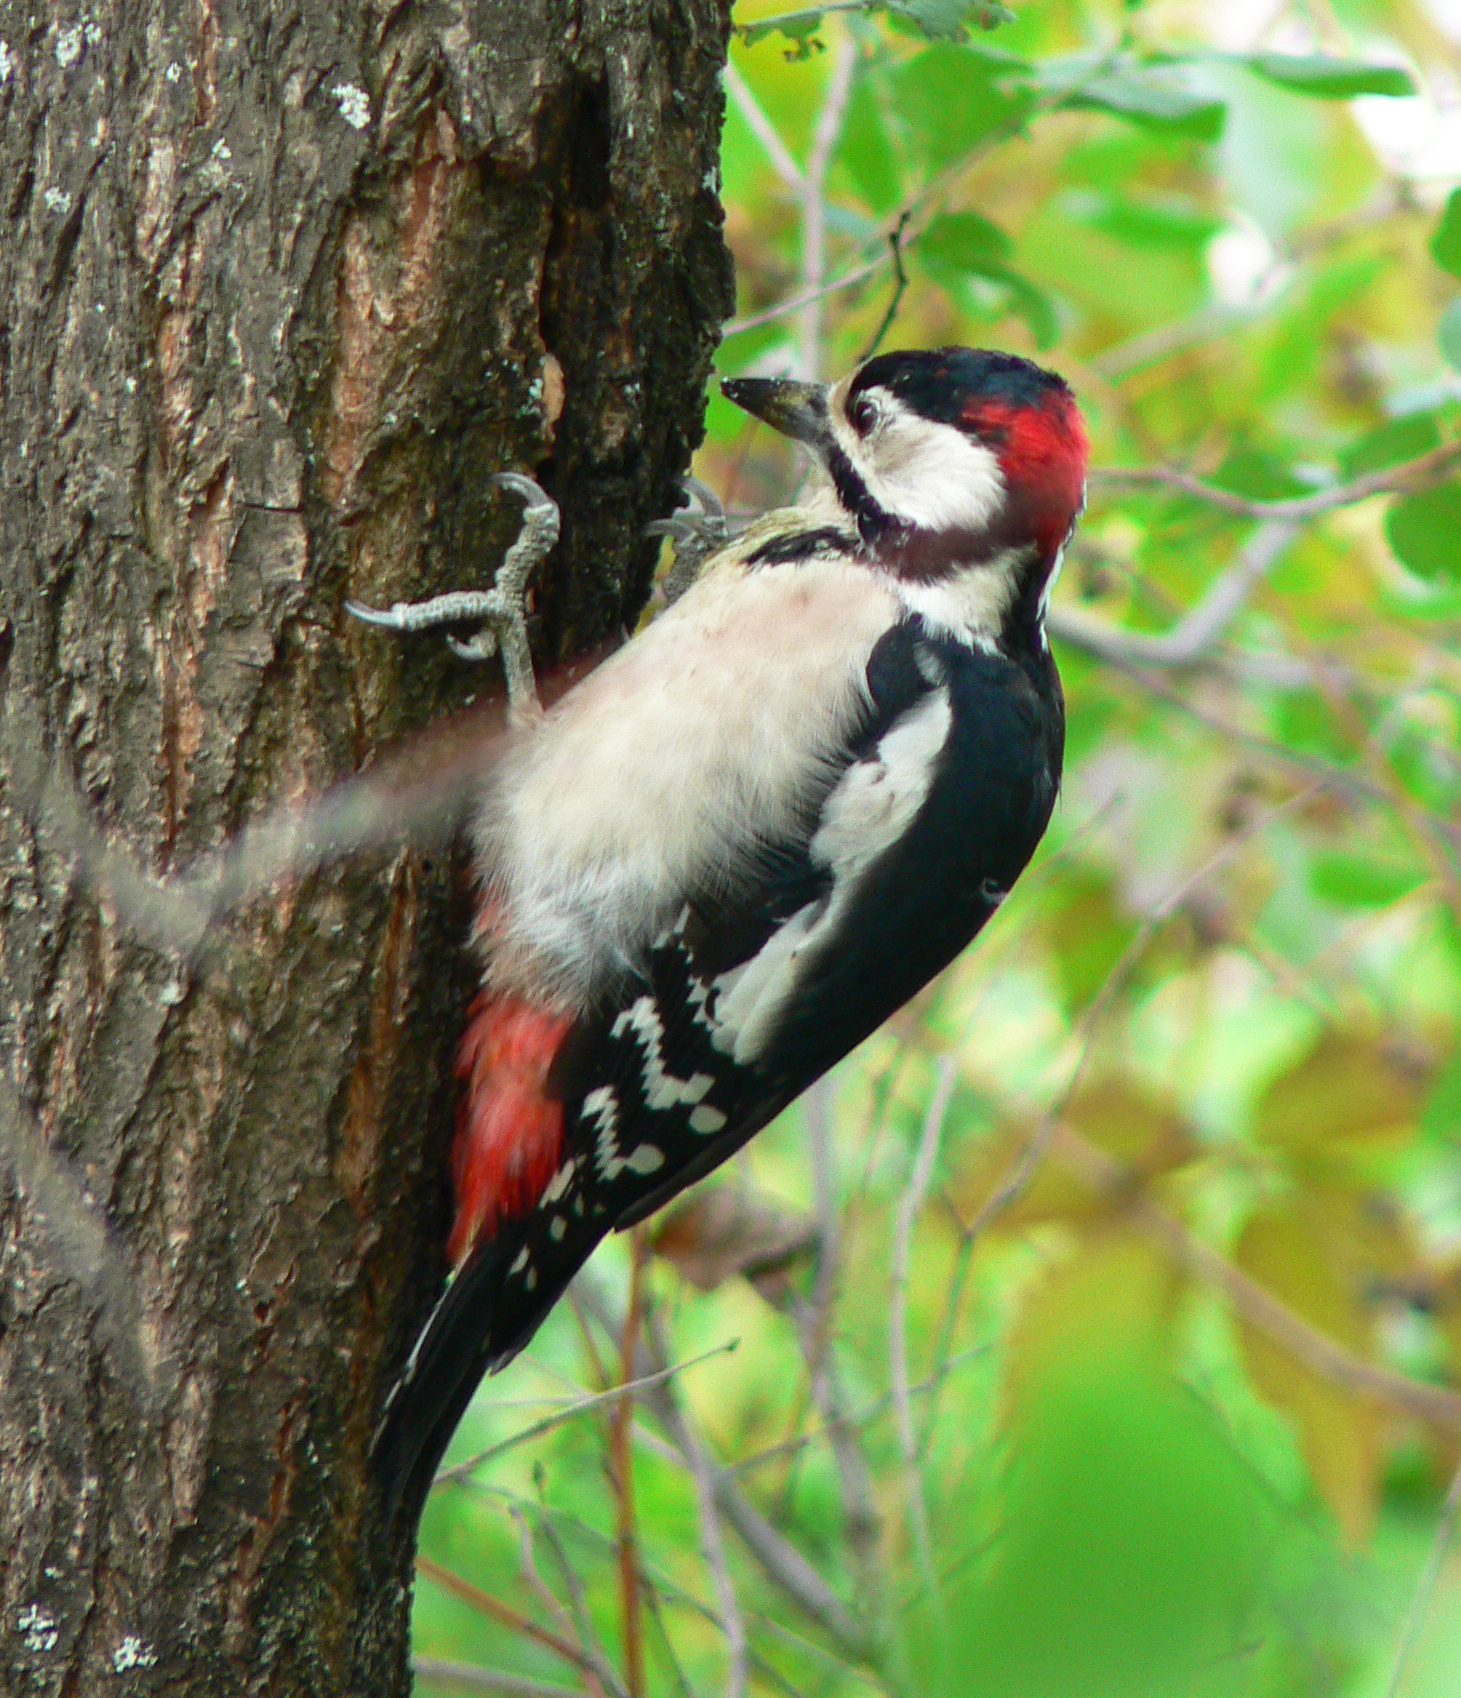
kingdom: Animalia
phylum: Chordata
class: Aves
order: Piciformes
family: Picidae
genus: Dendrocopos
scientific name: Dendrocopos major
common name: Great spotted woodpecker
